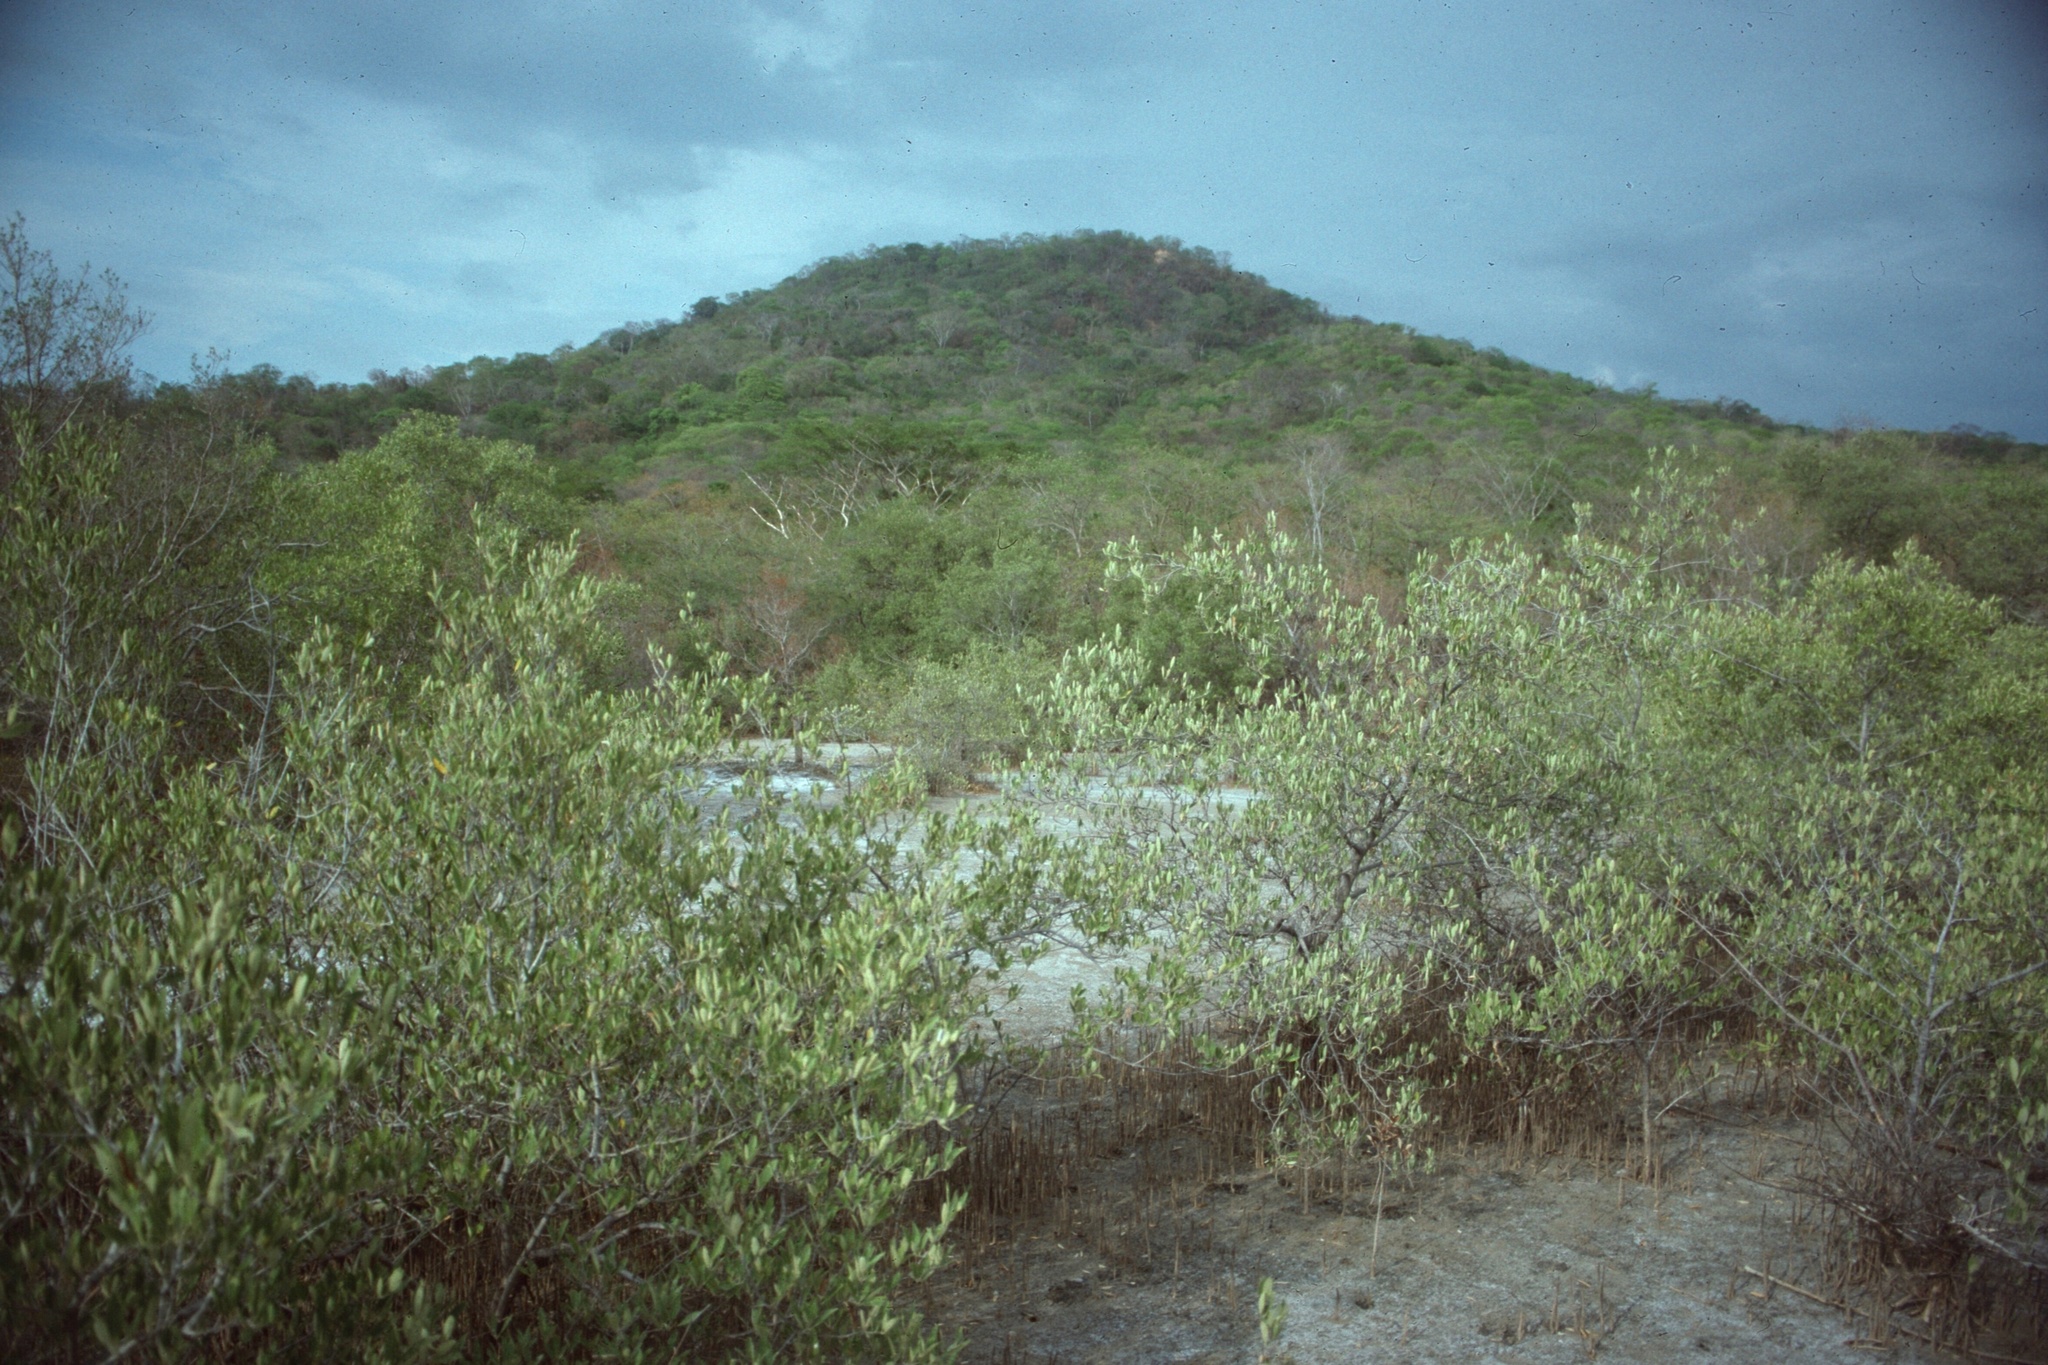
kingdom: Plantae
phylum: Tracheophyta
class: Magnoliopsida
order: Myrtales
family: Combretaceae
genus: Conocarpus
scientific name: Conocarpus erectus
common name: Button mangrove
